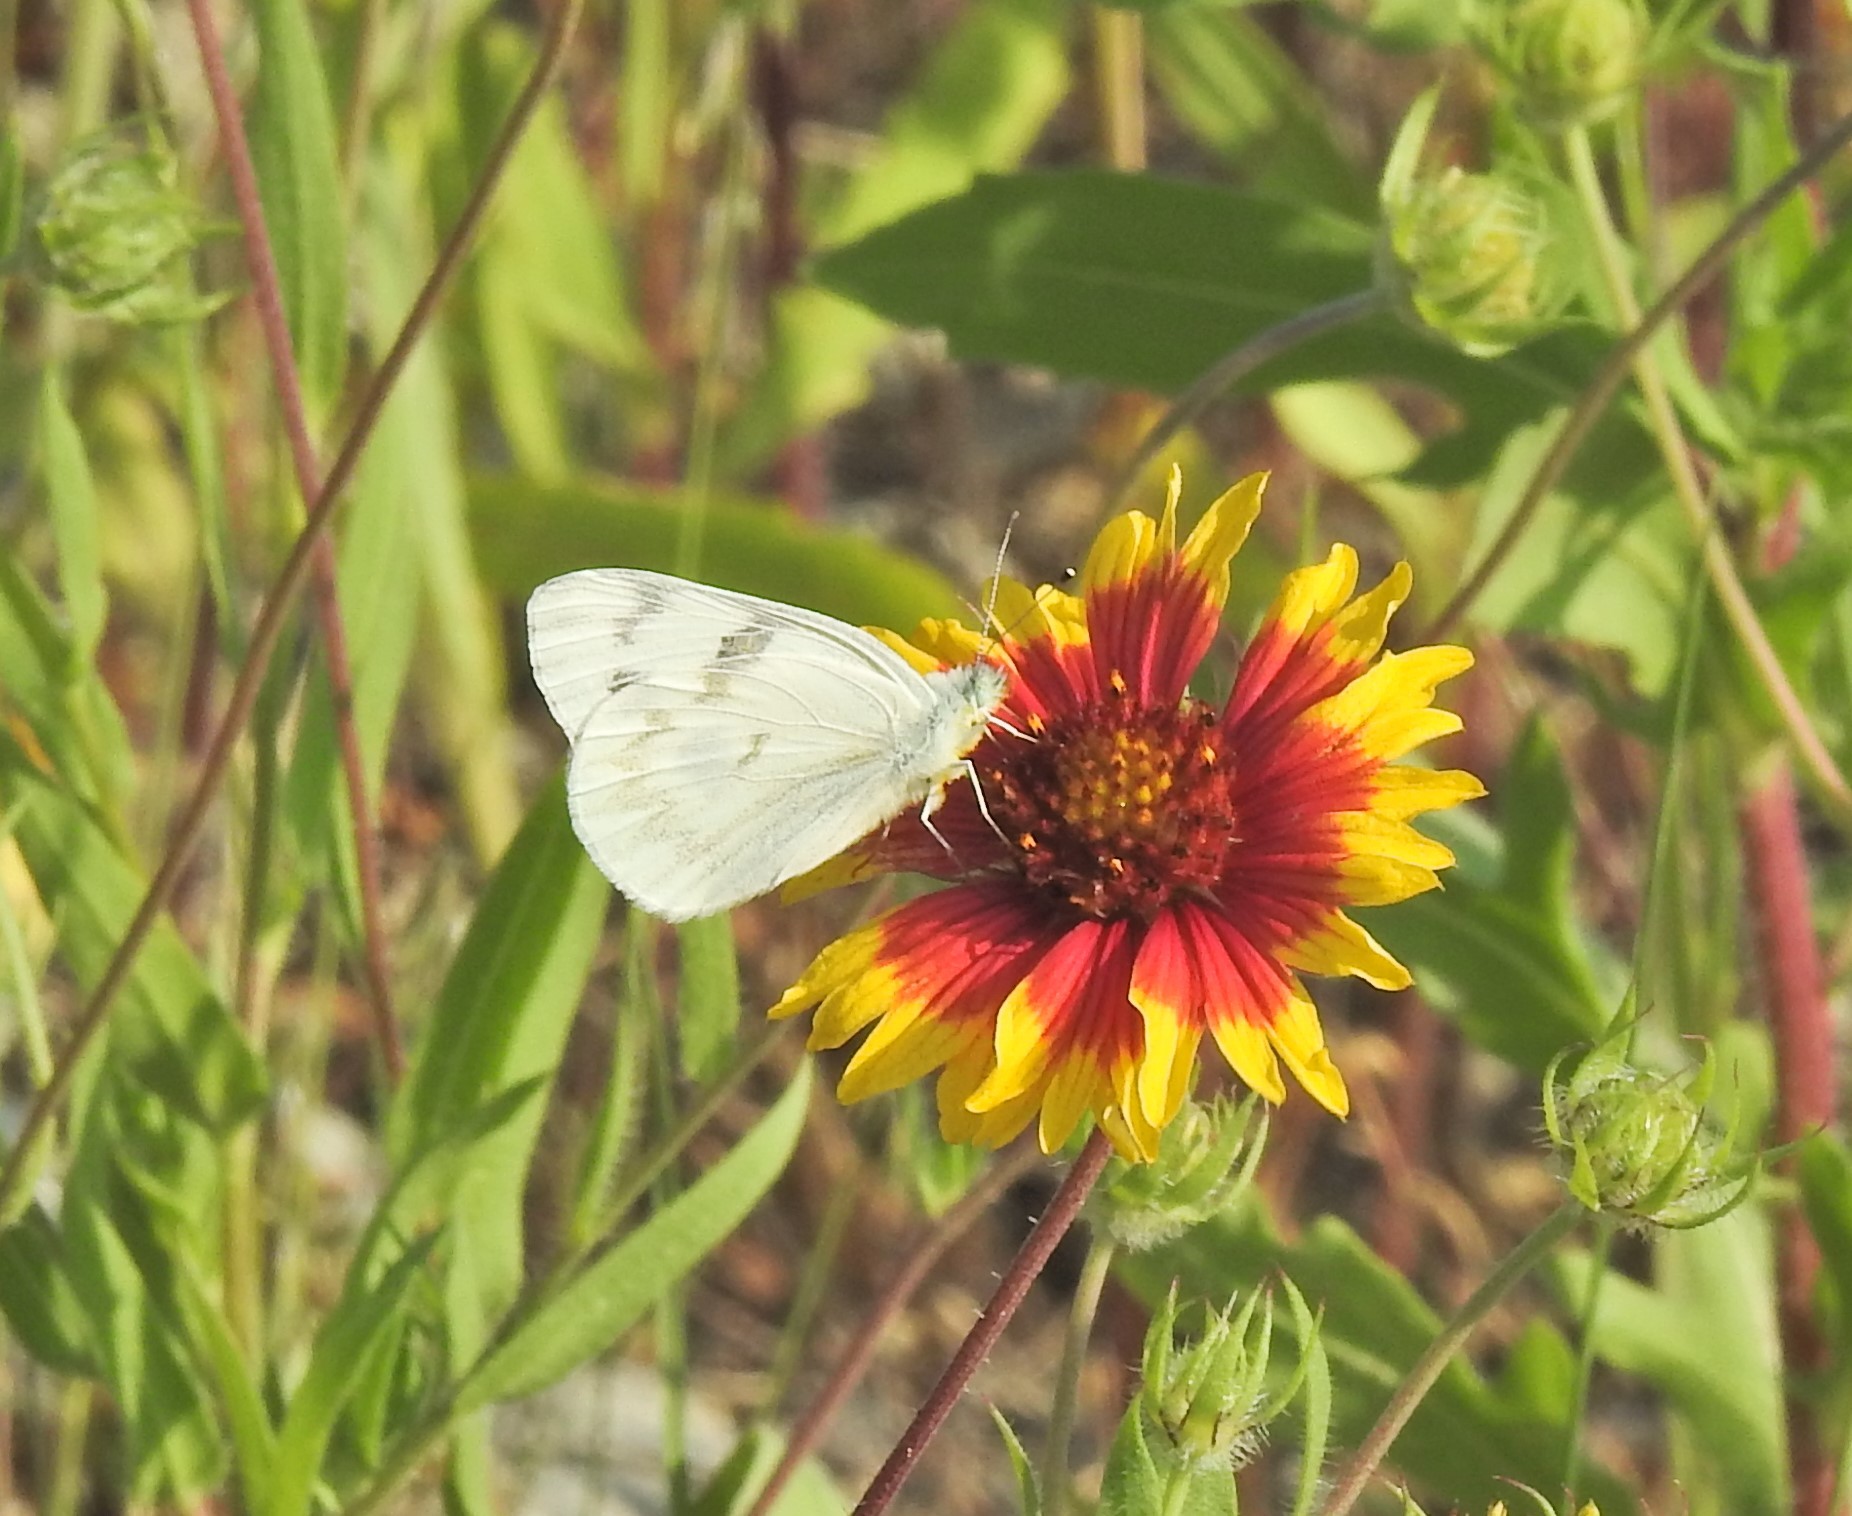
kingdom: Animalia
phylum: Arthropoda
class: Insecta
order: Lepidoptera
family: Pieridae
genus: Pontia
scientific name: Pontia protodice
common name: Checkered white
